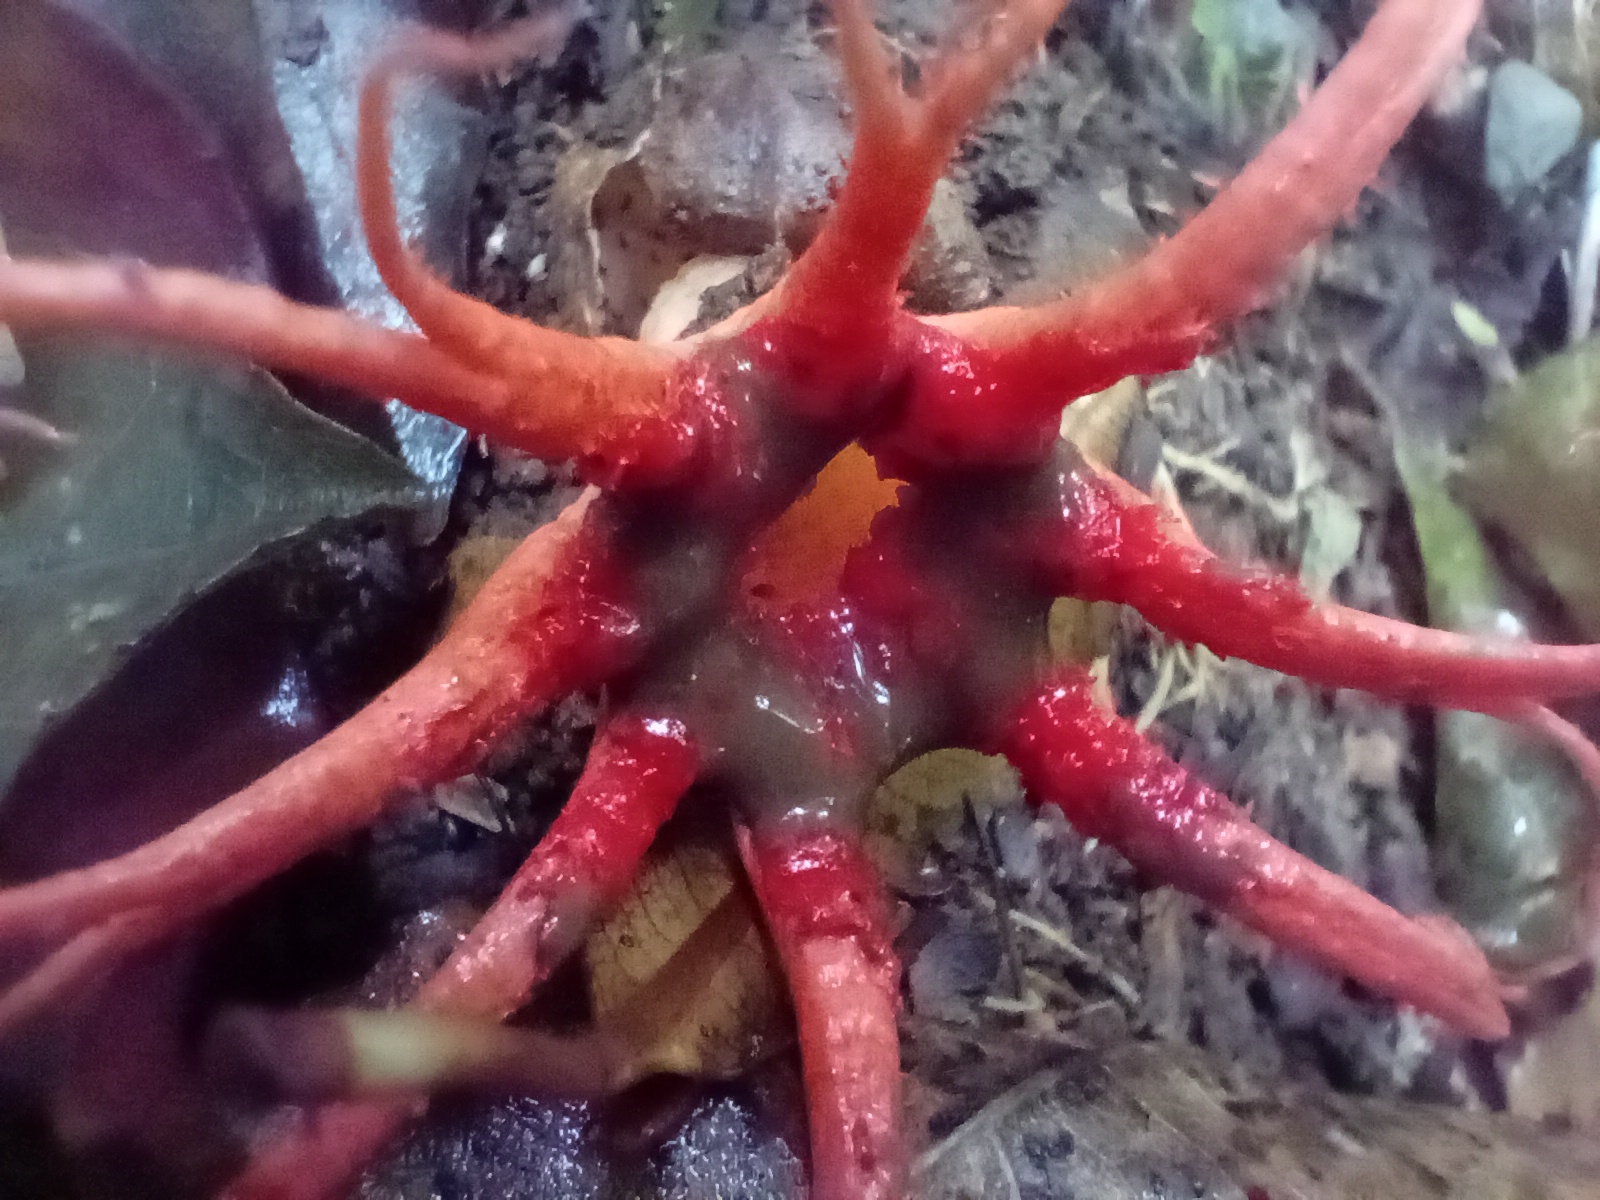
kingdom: Fungi
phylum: Basidiomycota
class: Agaricomycetes
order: Phallales
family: Phallaceae
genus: Aseroe
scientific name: Aseroe rubra
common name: Starfish fungus
